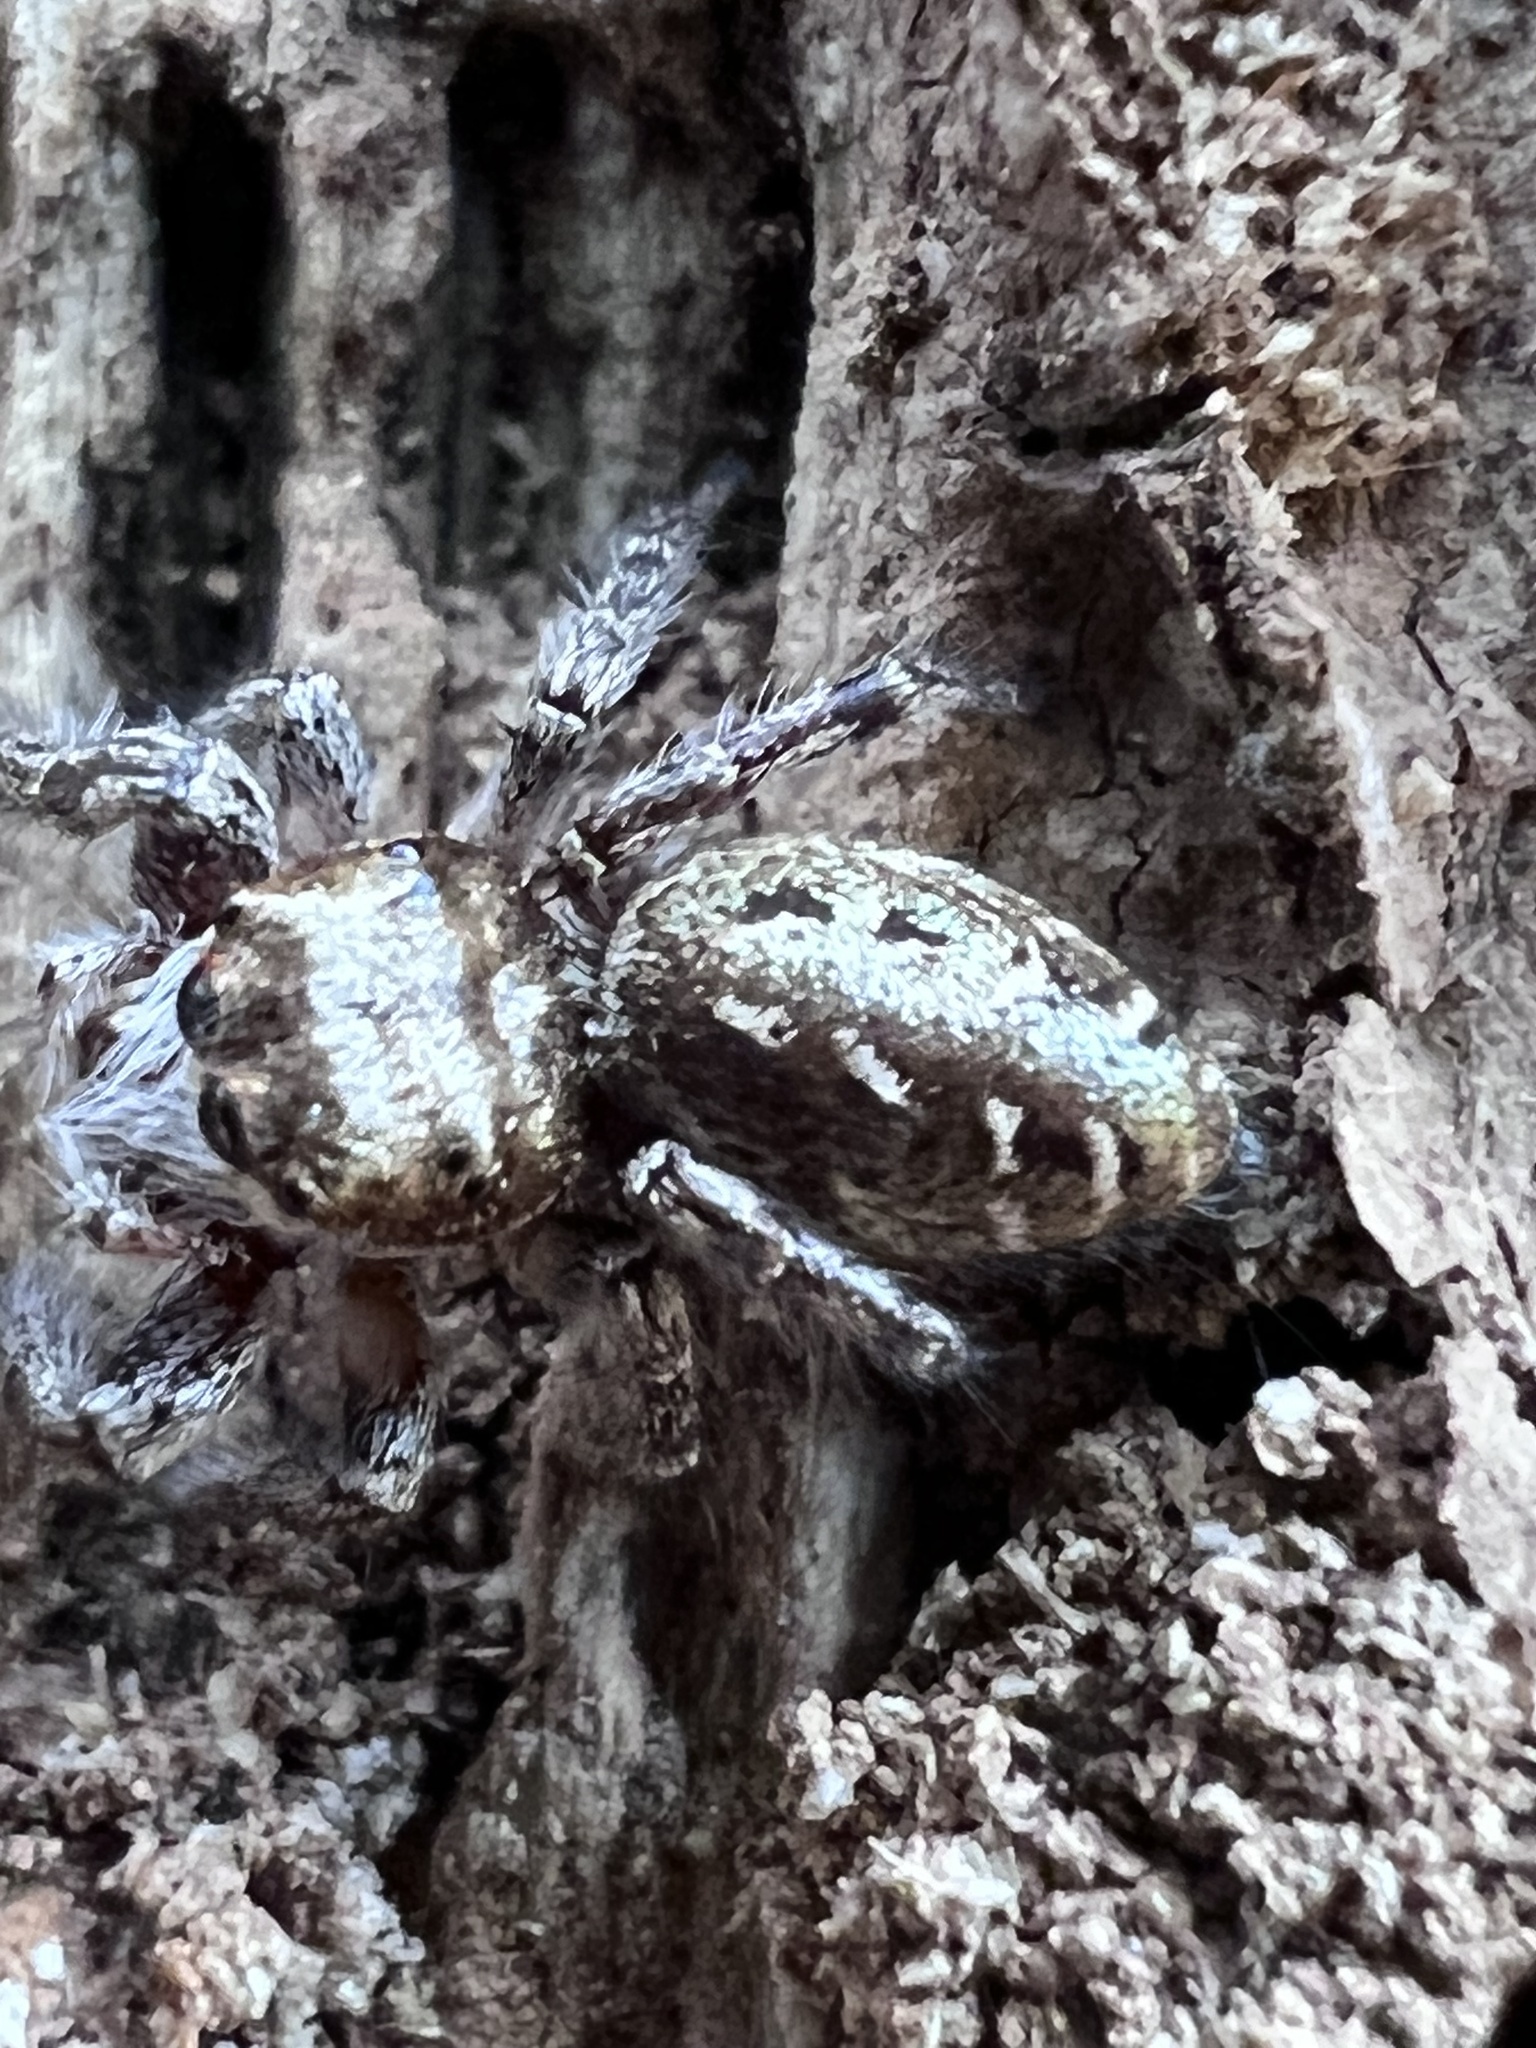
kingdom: Animalia
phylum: Arthropoda
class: Arachnida
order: Araneae
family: Salticidae
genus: Eris
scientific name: Eris militaris
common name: Bronze jumper
